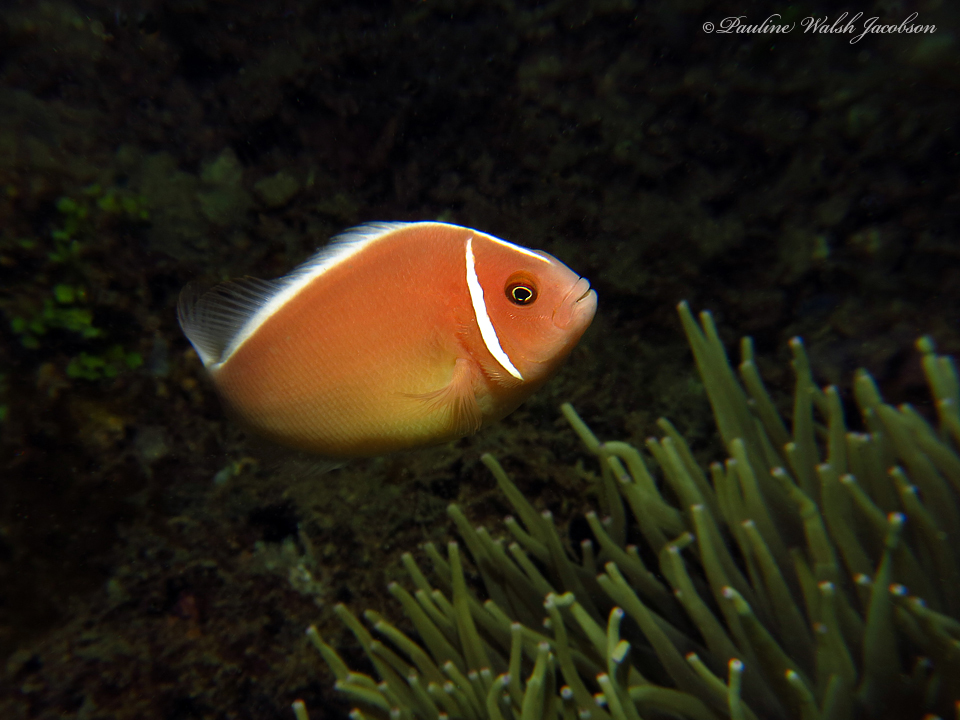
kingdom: Animalia
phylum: Chordata
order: Perciformes
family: Pomacentridae
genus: Amphiprion
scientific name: Amphiprion perideraion
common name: Pink anemonefish
